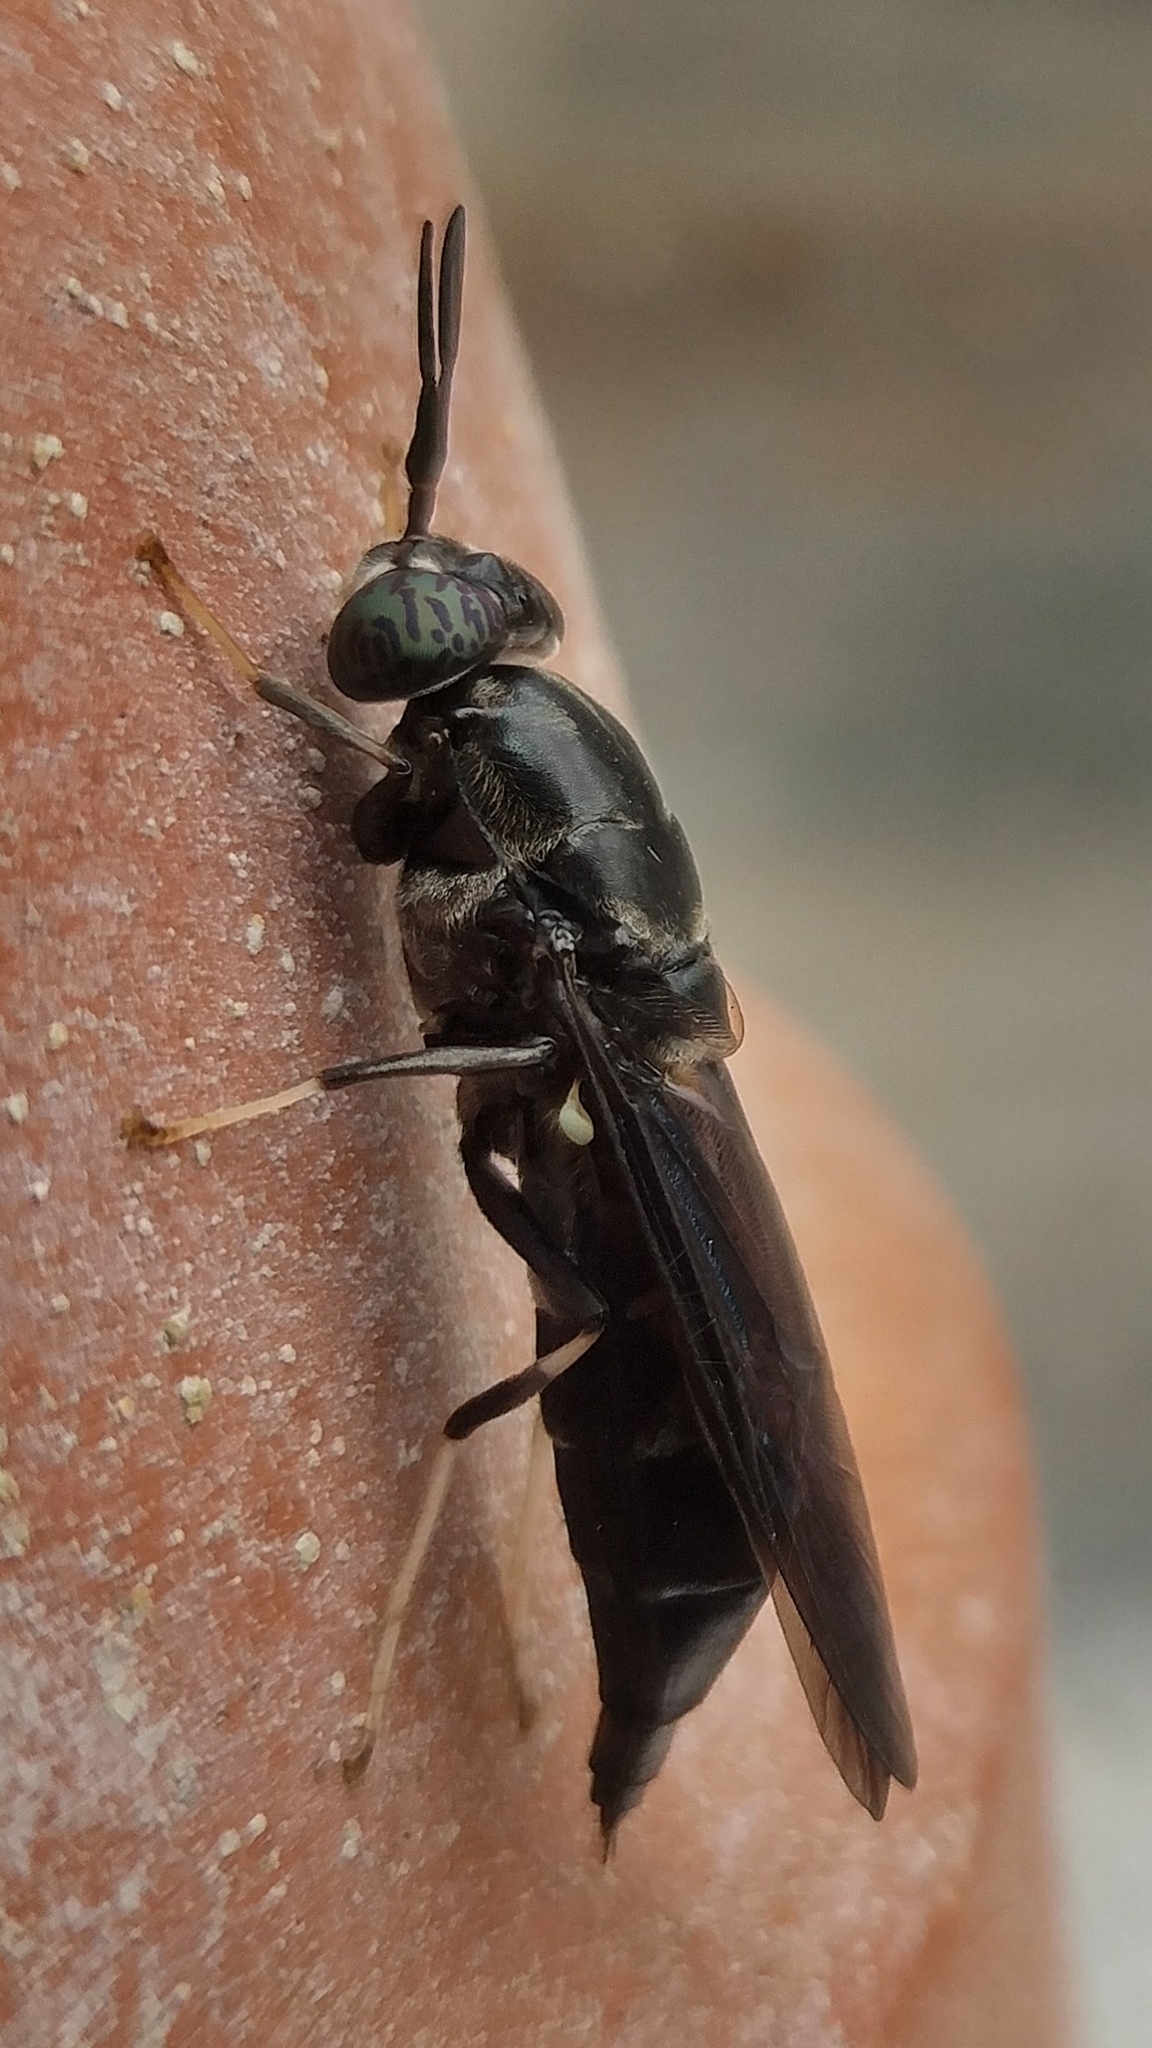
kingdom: Animalia
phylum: Arthropoda
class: Insecta
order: Diptera
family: Stratiomyidae
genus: Hermetia
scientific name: Hermetia illucens
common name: Black soldier fly
